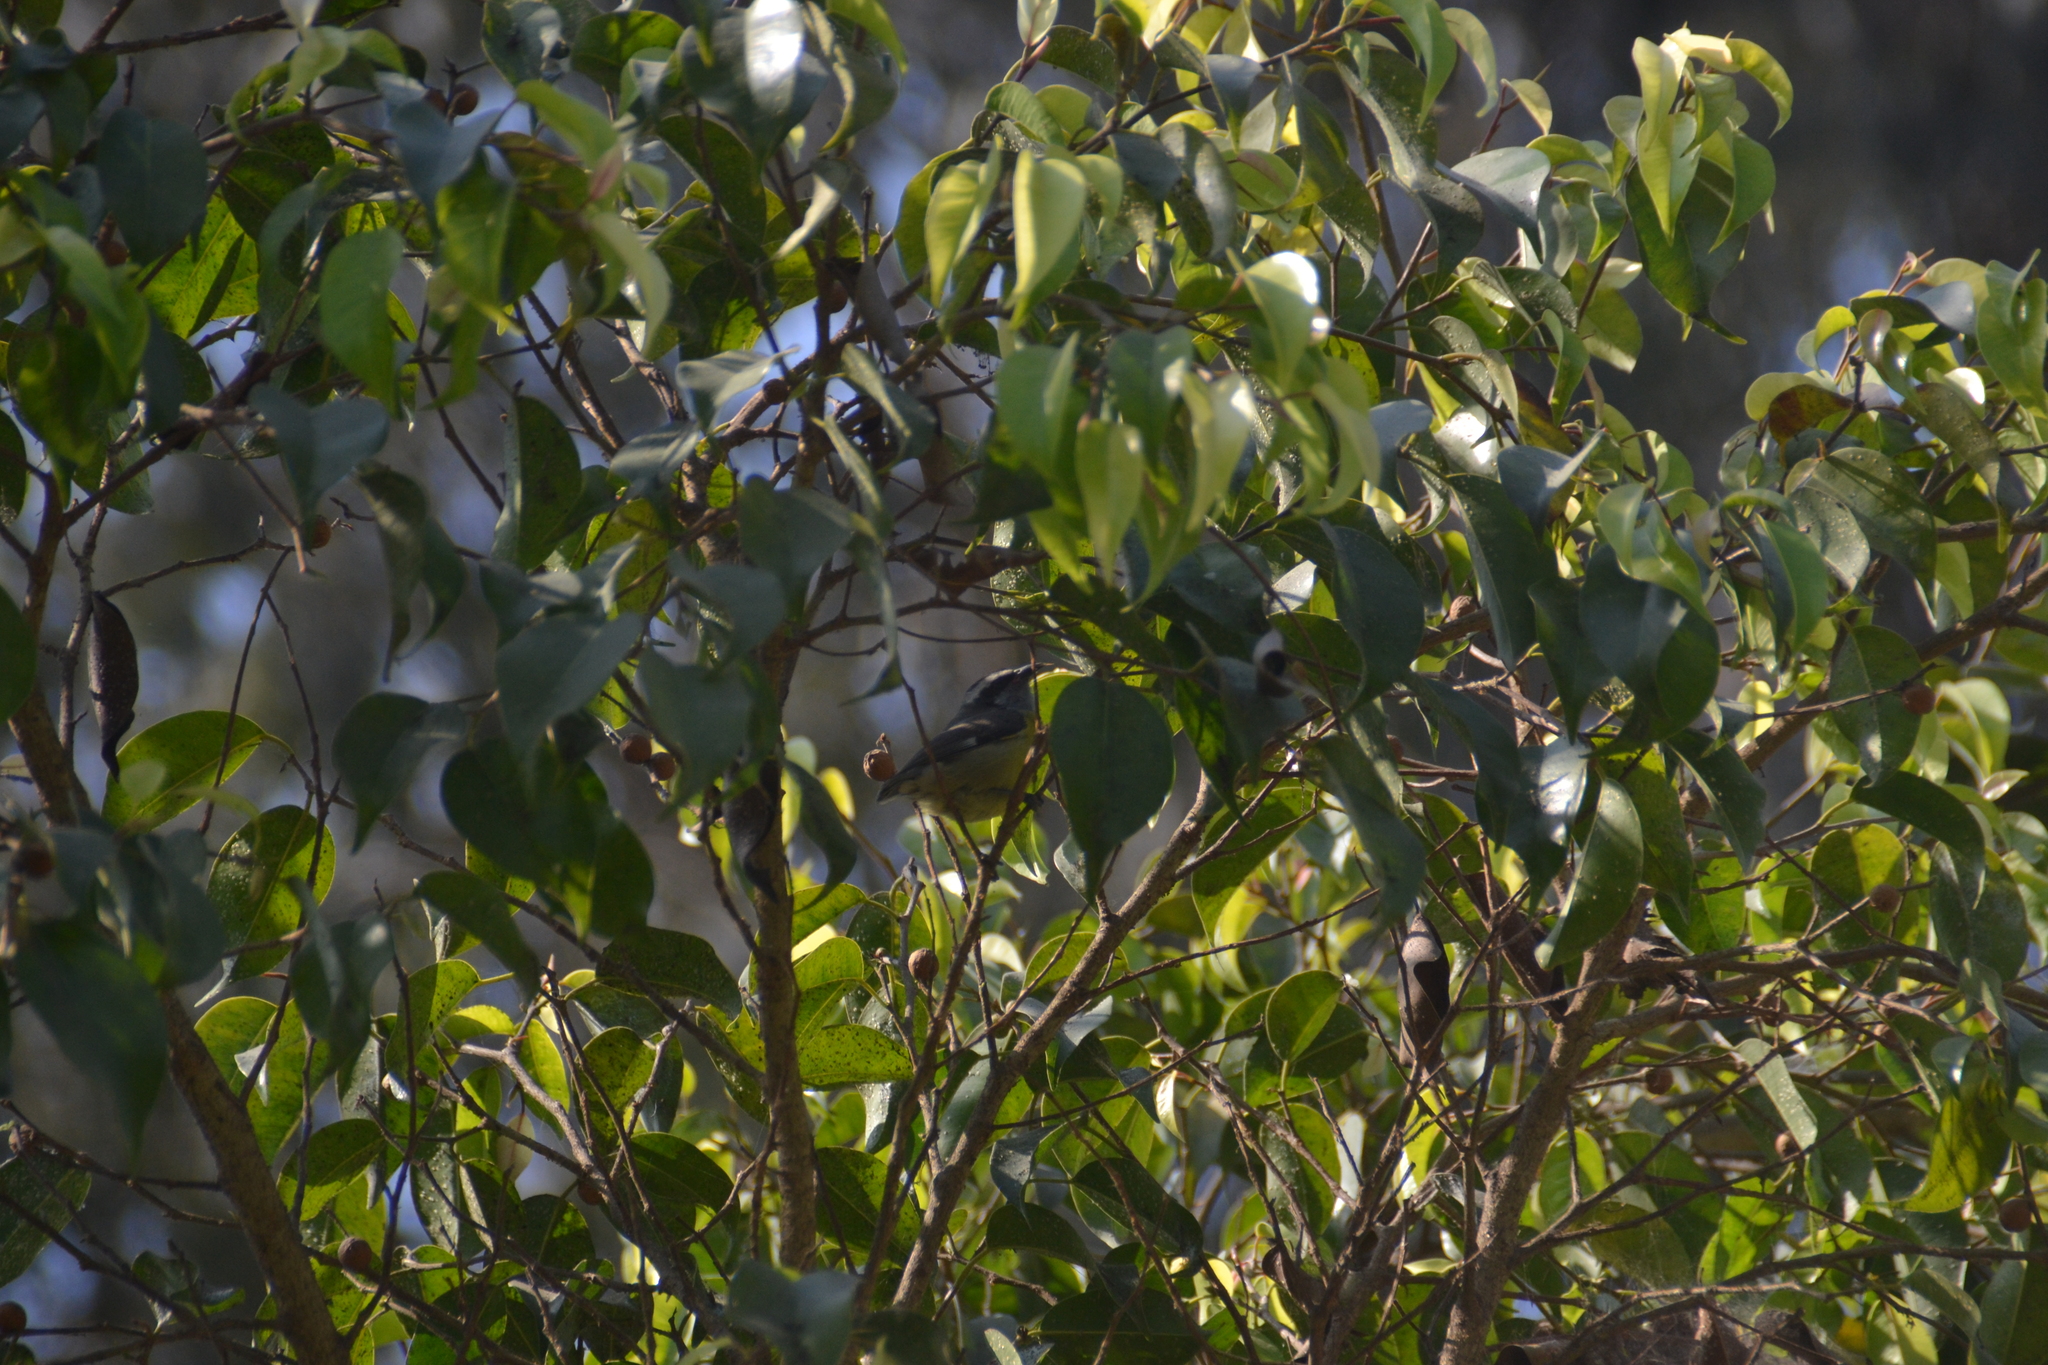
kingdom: Animalia
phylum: Chordata
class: Aves
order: Passeriformes
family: Thraupidae
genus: Coereba
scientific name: Coereba flaveola
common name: Bananaquit
